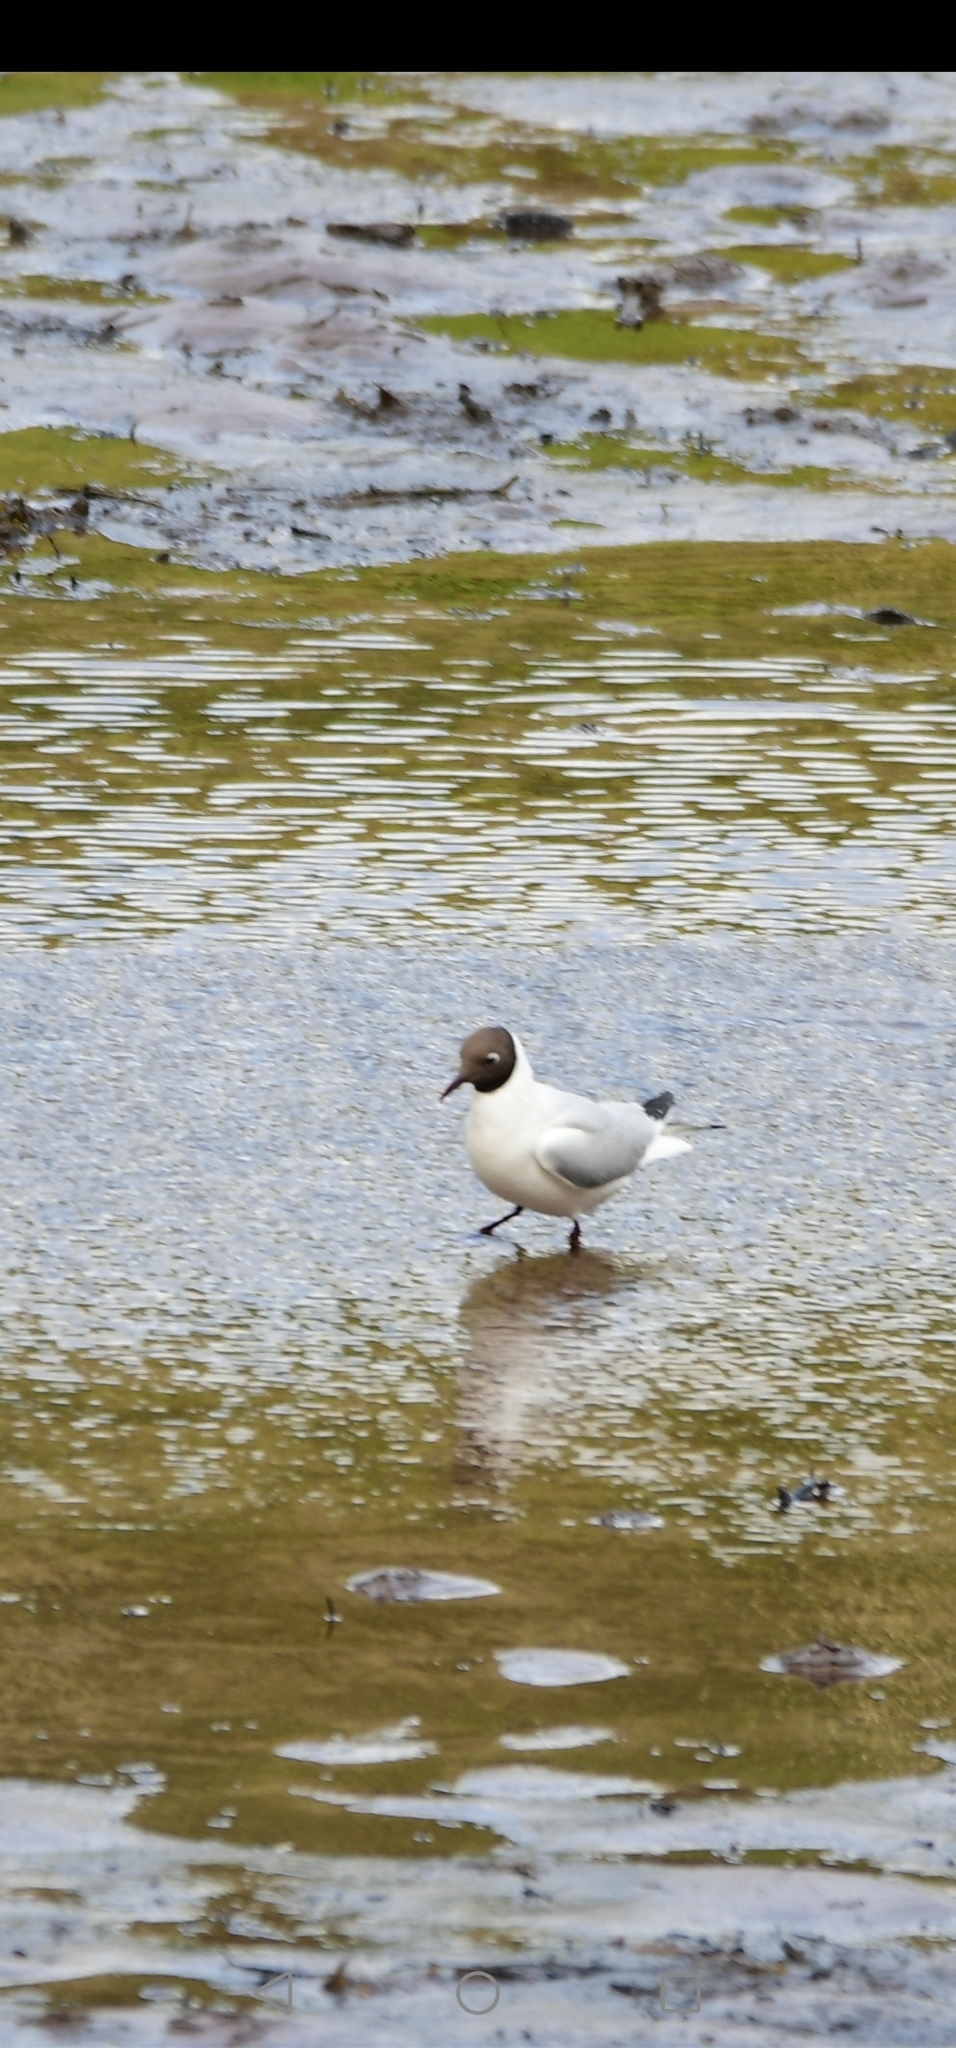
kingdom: Animalia
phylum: Chordata
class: Aves
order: Charadriiformes
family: Laridae
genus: Chroicocephalus
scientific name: Chroicocephalus ridibundus
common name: Black-headed gull
